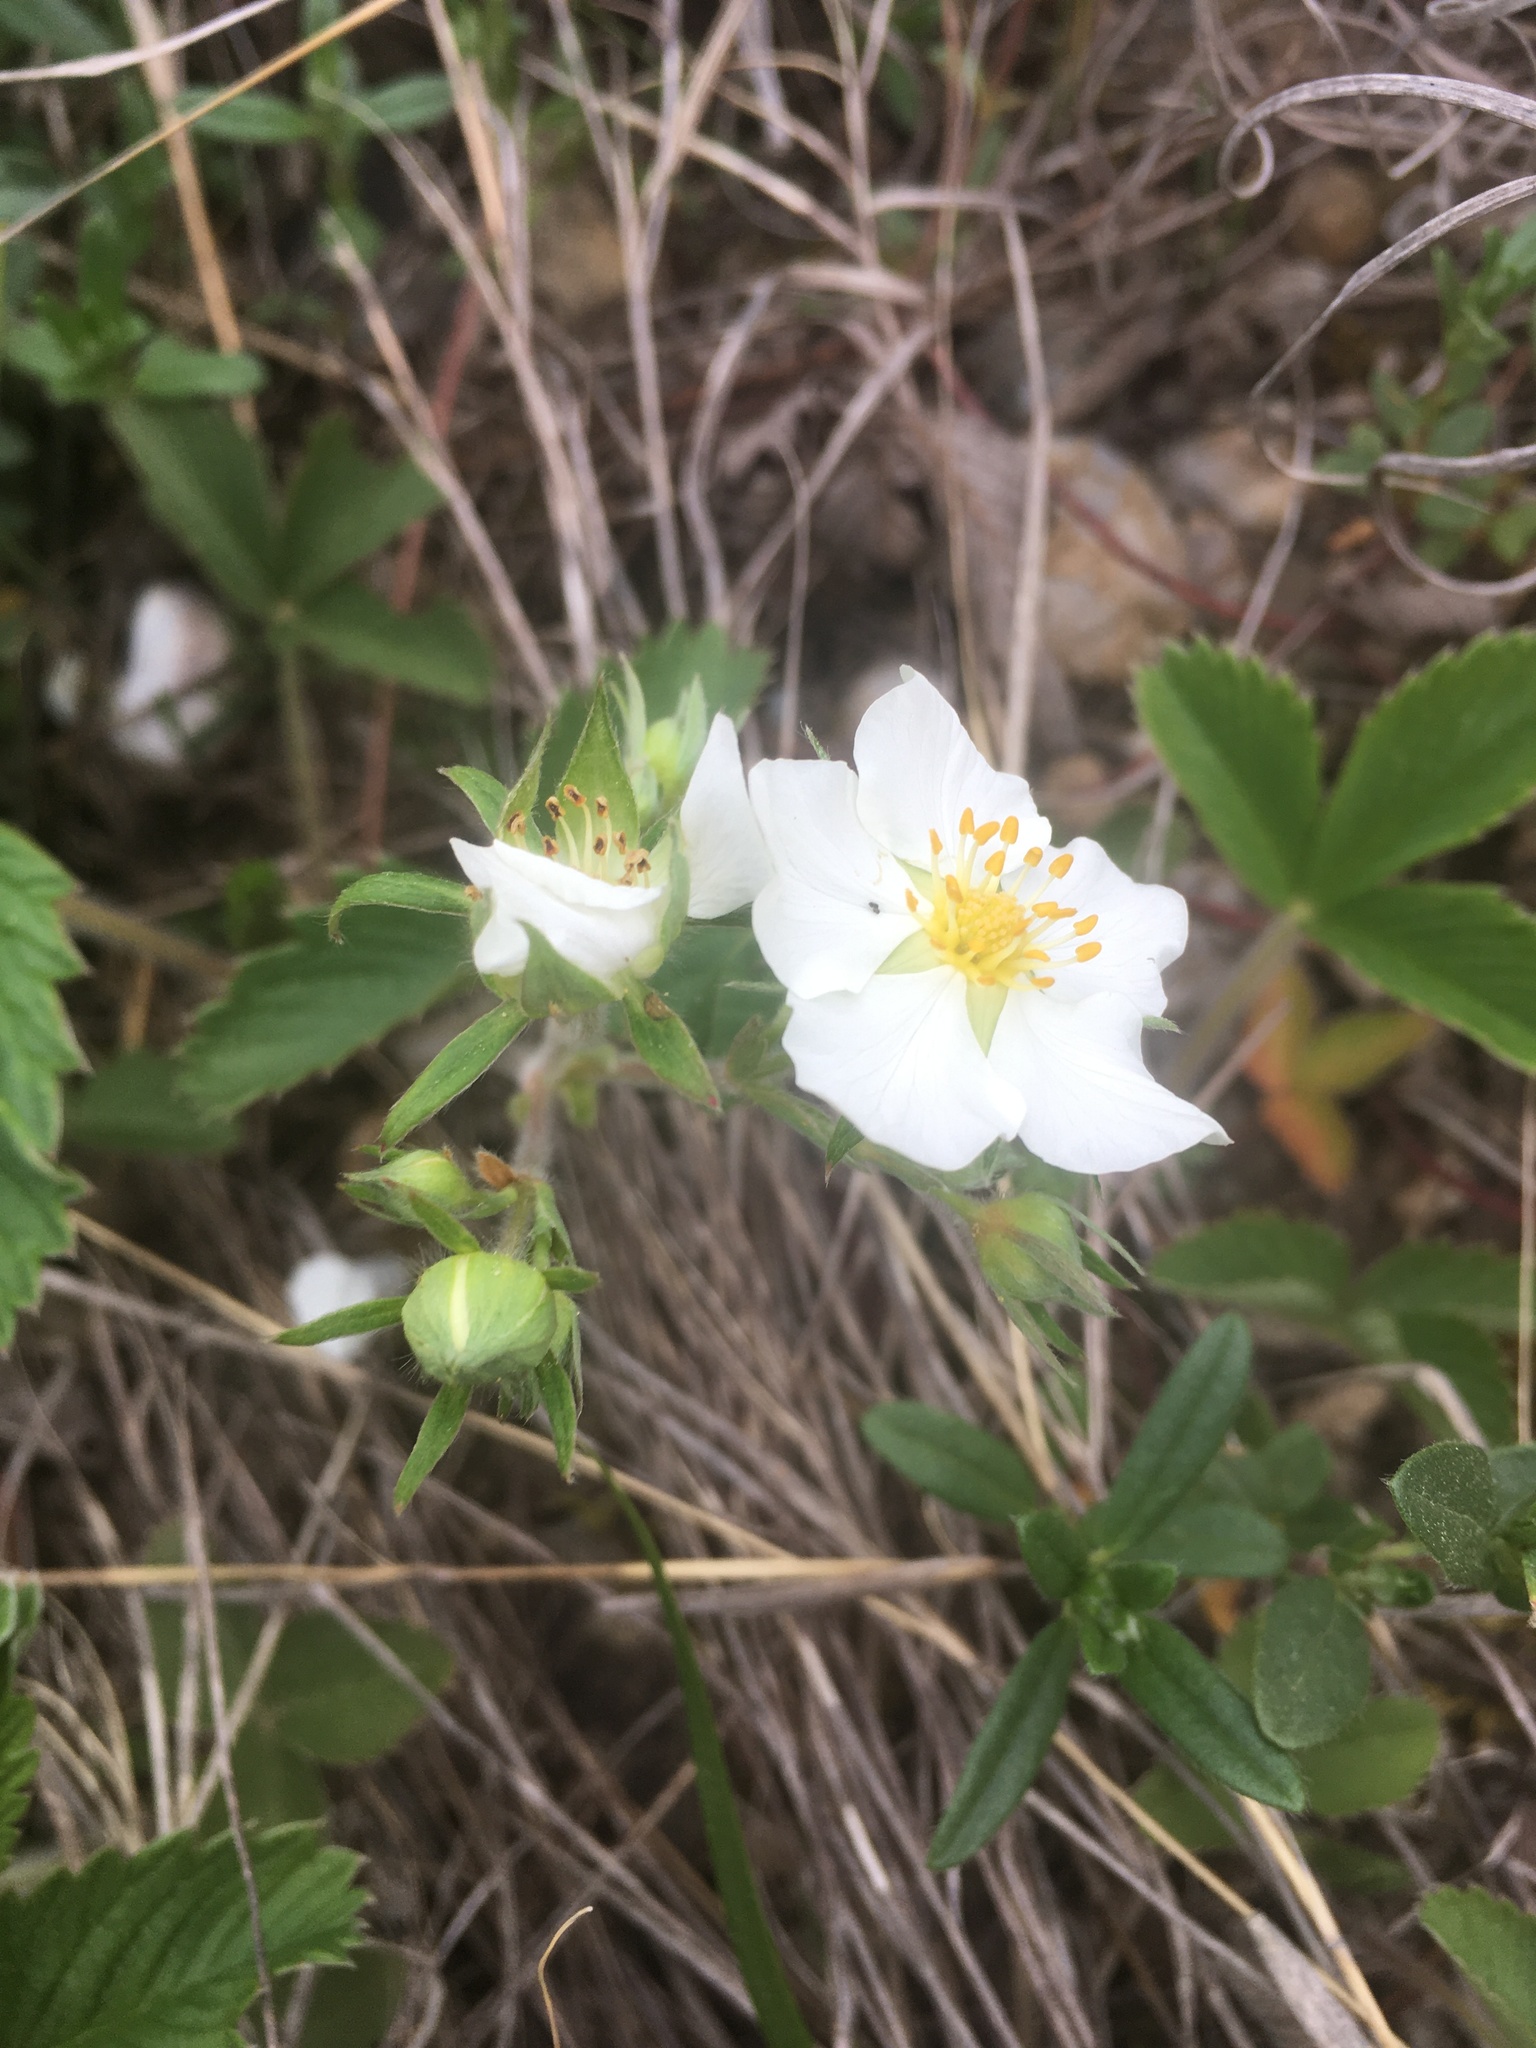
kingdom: Plantae
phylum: Tracheophyta
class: Magnoliopsida
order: Rosales
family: Rosaceae
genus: Fragaria
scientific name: Fragaria viridis
